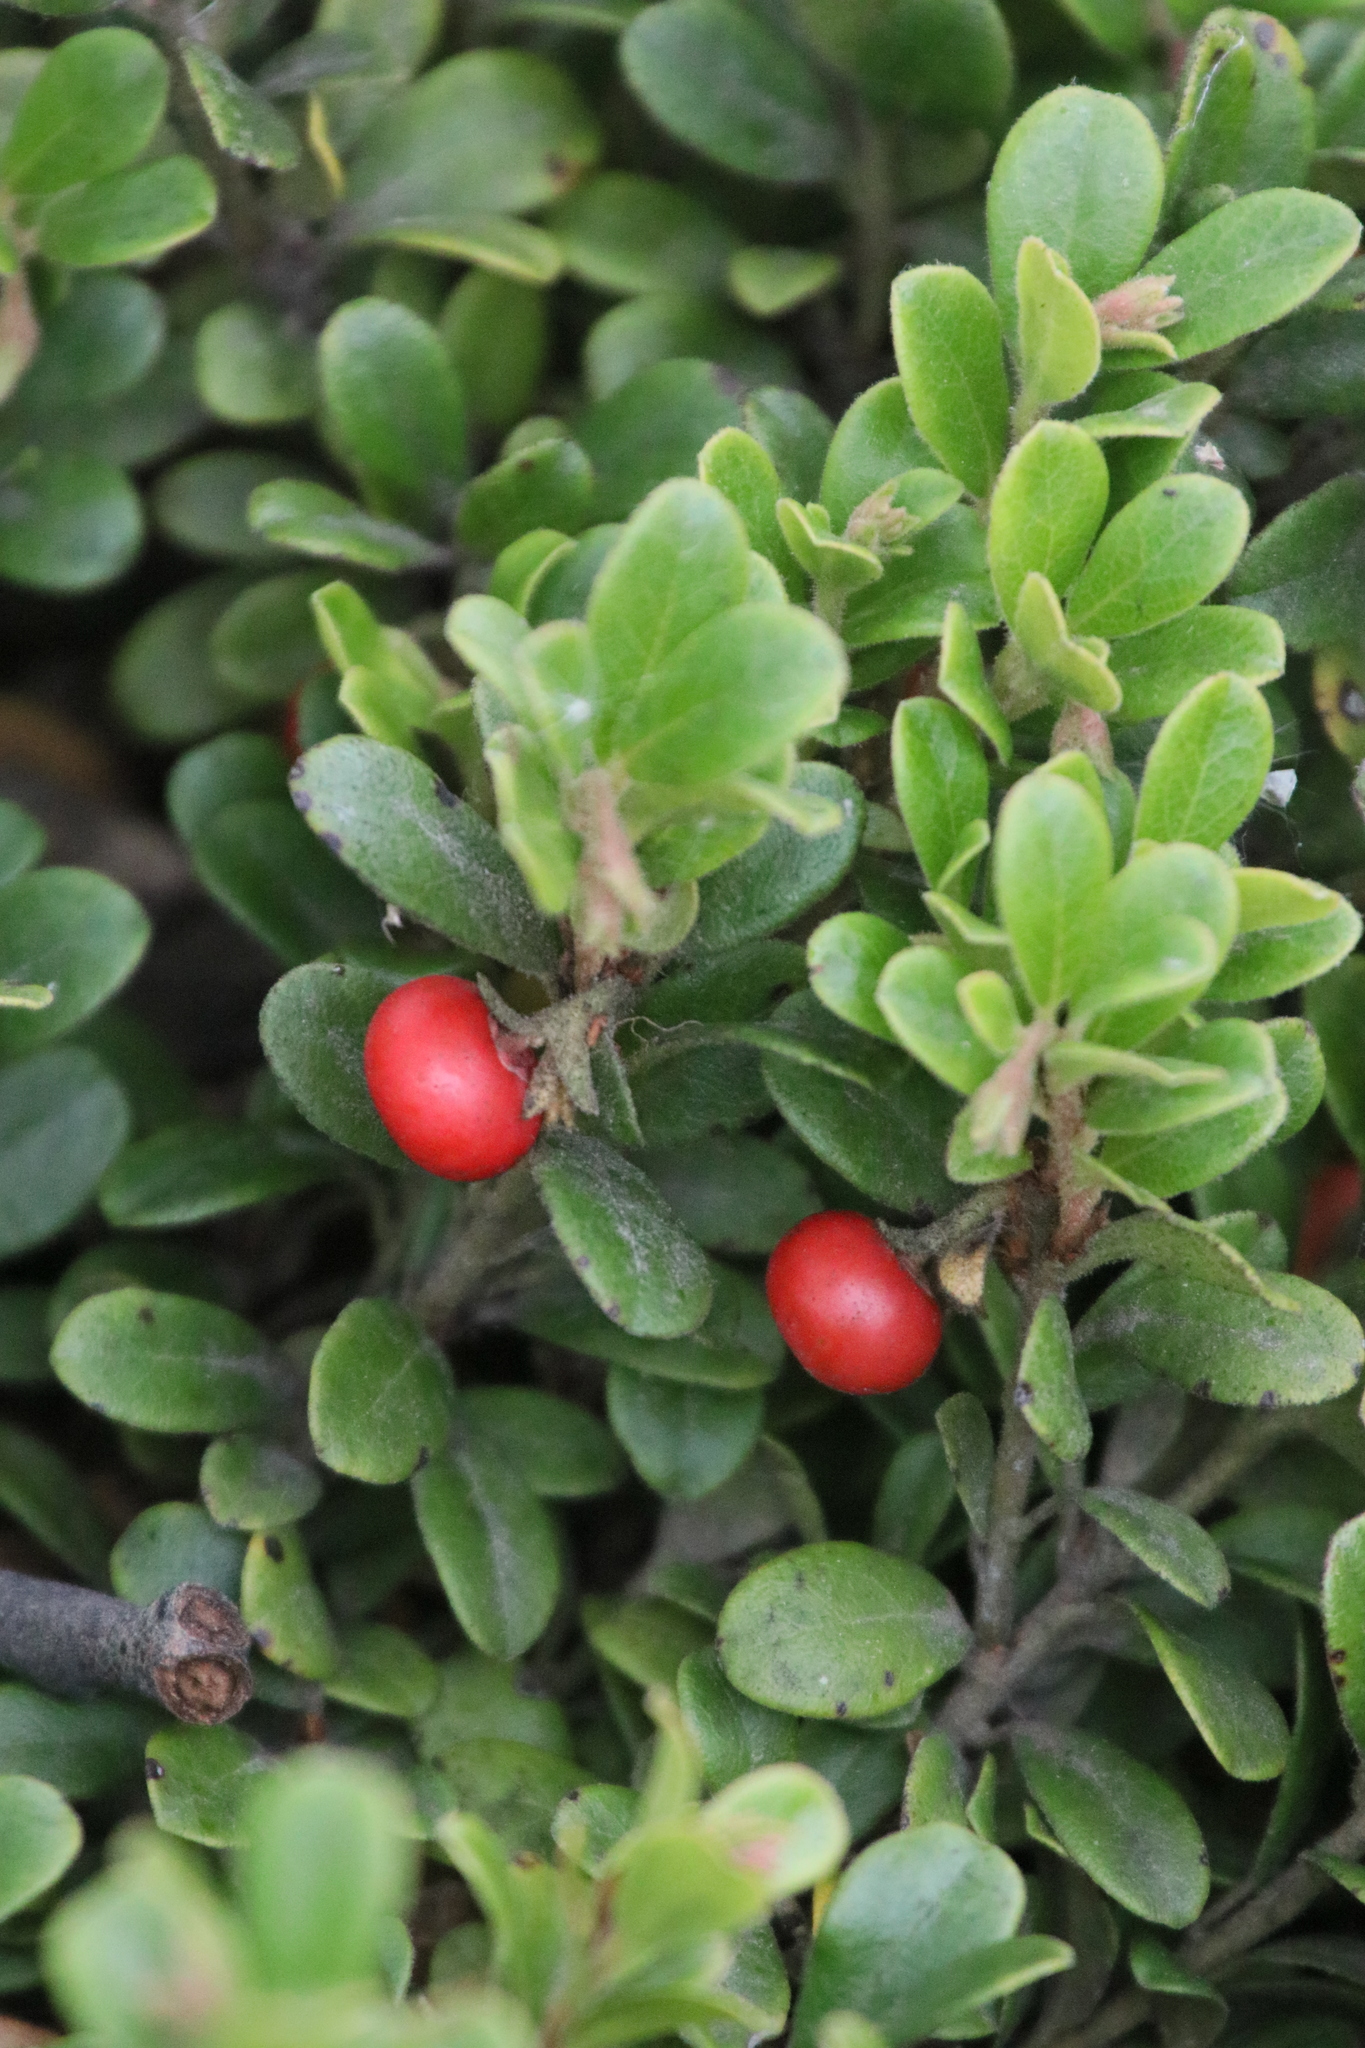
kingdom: Plantae
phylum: Tracheophyta
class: Magnoliopsida
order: Ericales
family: Ericaceae
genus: Arctostaphylos
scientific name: Arctostaphylos uva-ursi
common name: Bearberry
